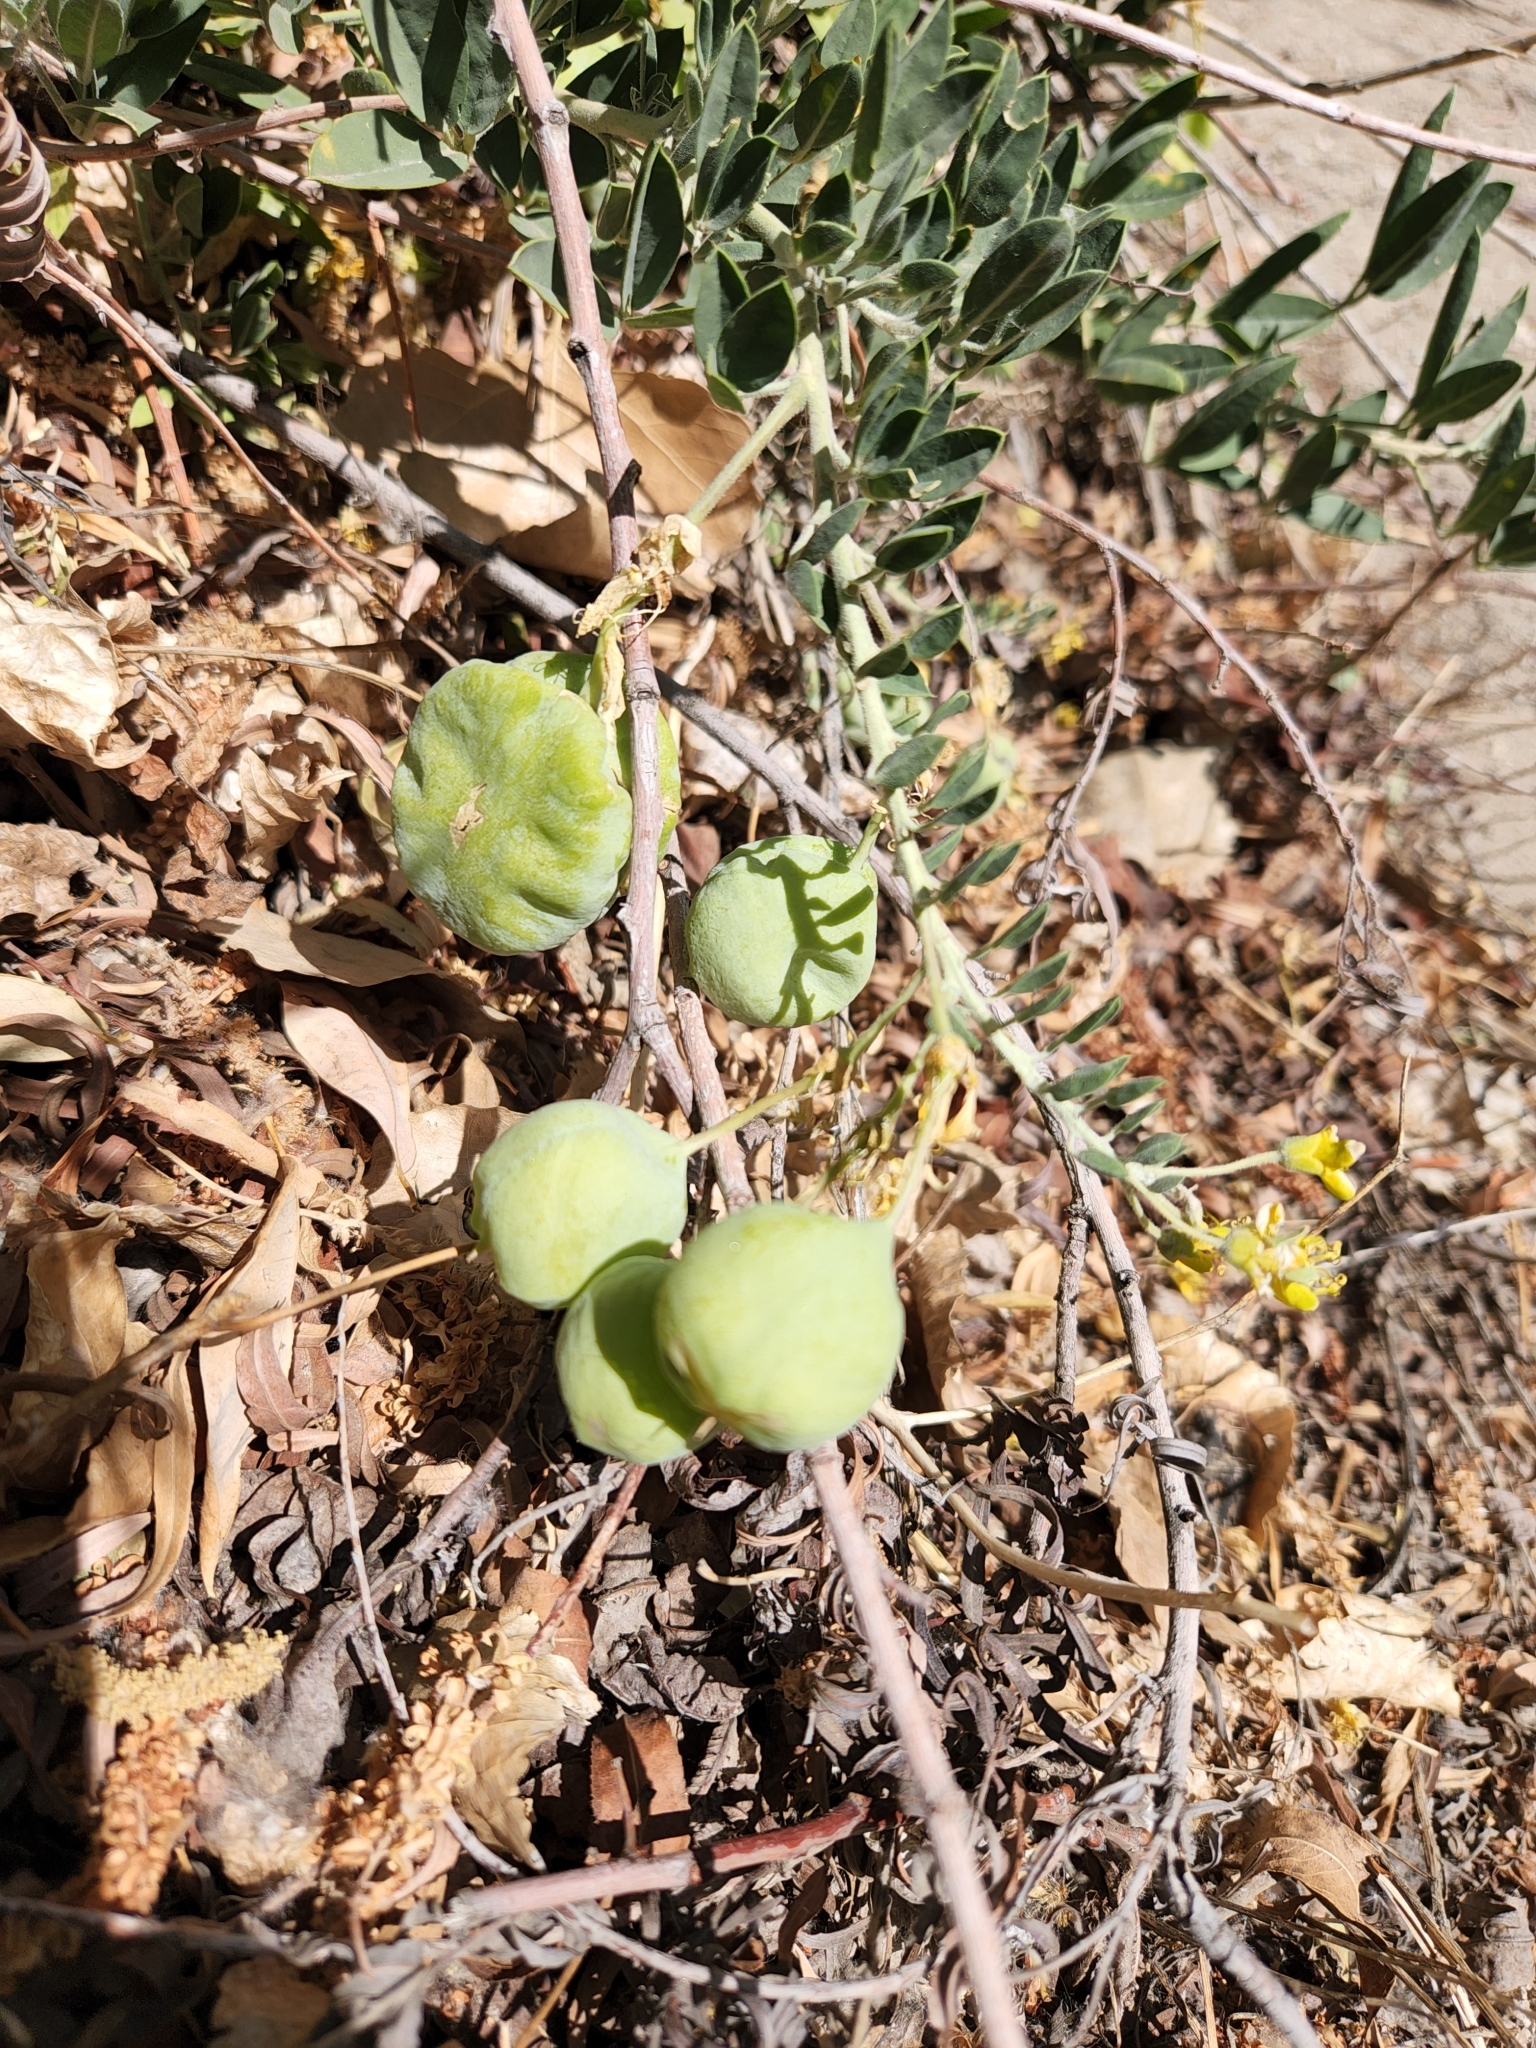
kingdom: Plantae
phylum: Tracheophyta
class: Magnoliopsida
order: Brassicales
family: Cleomaceae
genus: Cleomella
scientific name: Cleomella arborea
